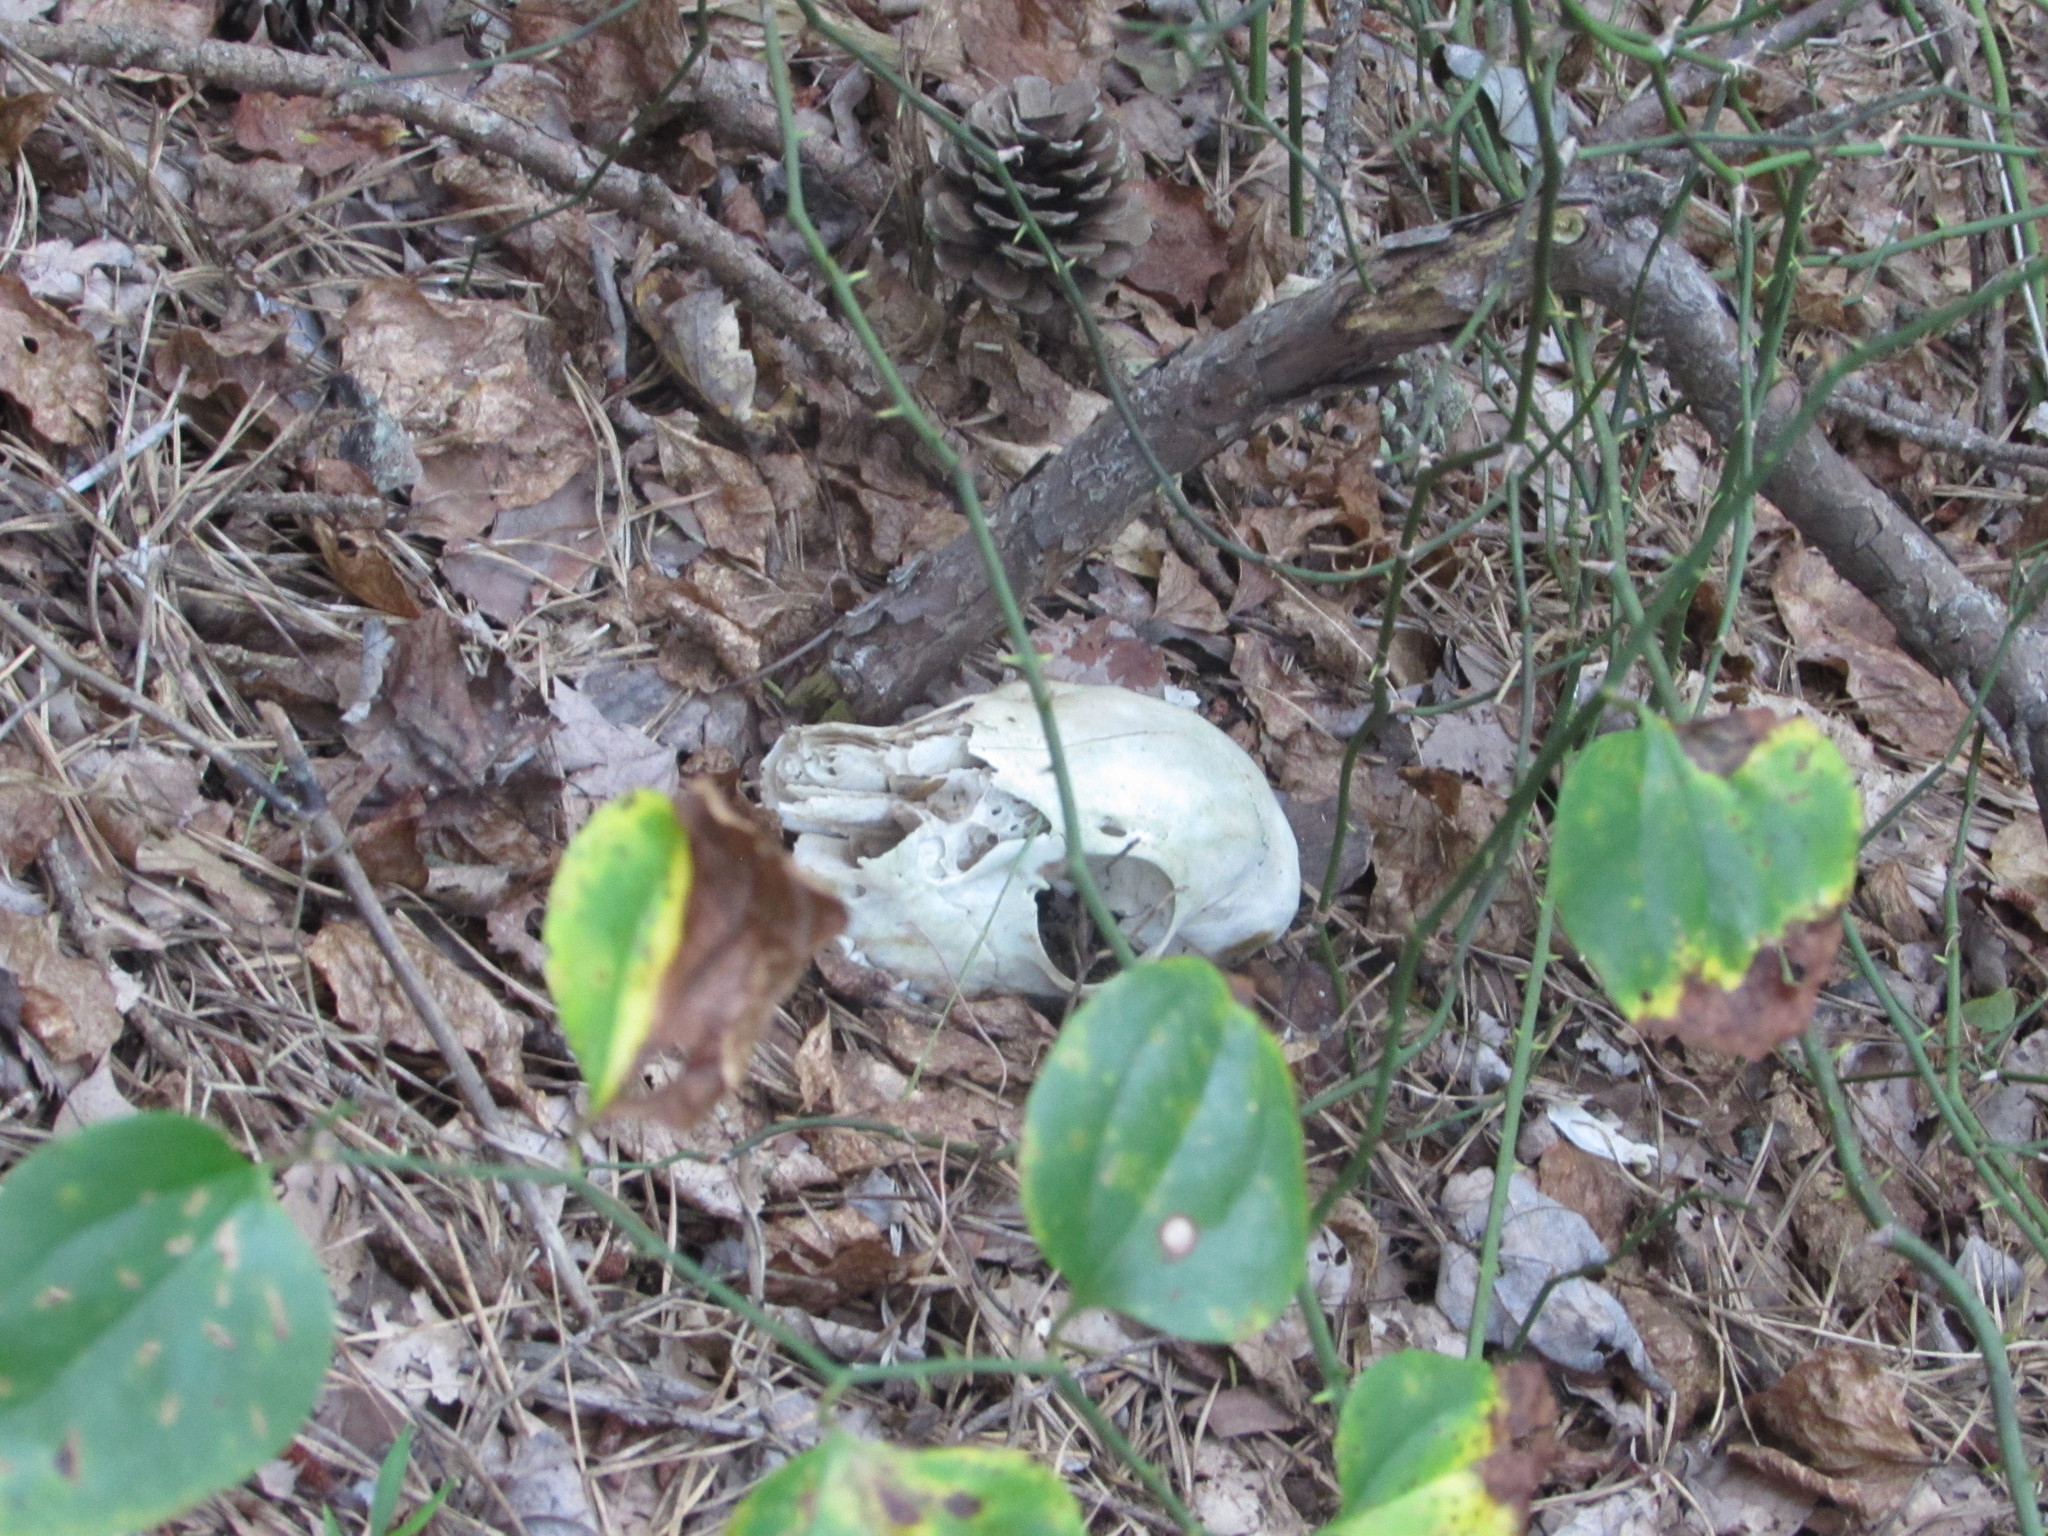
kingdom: Animalia
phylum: Chordata
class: Mammalia
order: Artiodactyla
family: Cervidae
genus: Odocoileus
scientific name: Odocoileus virginianus
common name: White-tailed deer
